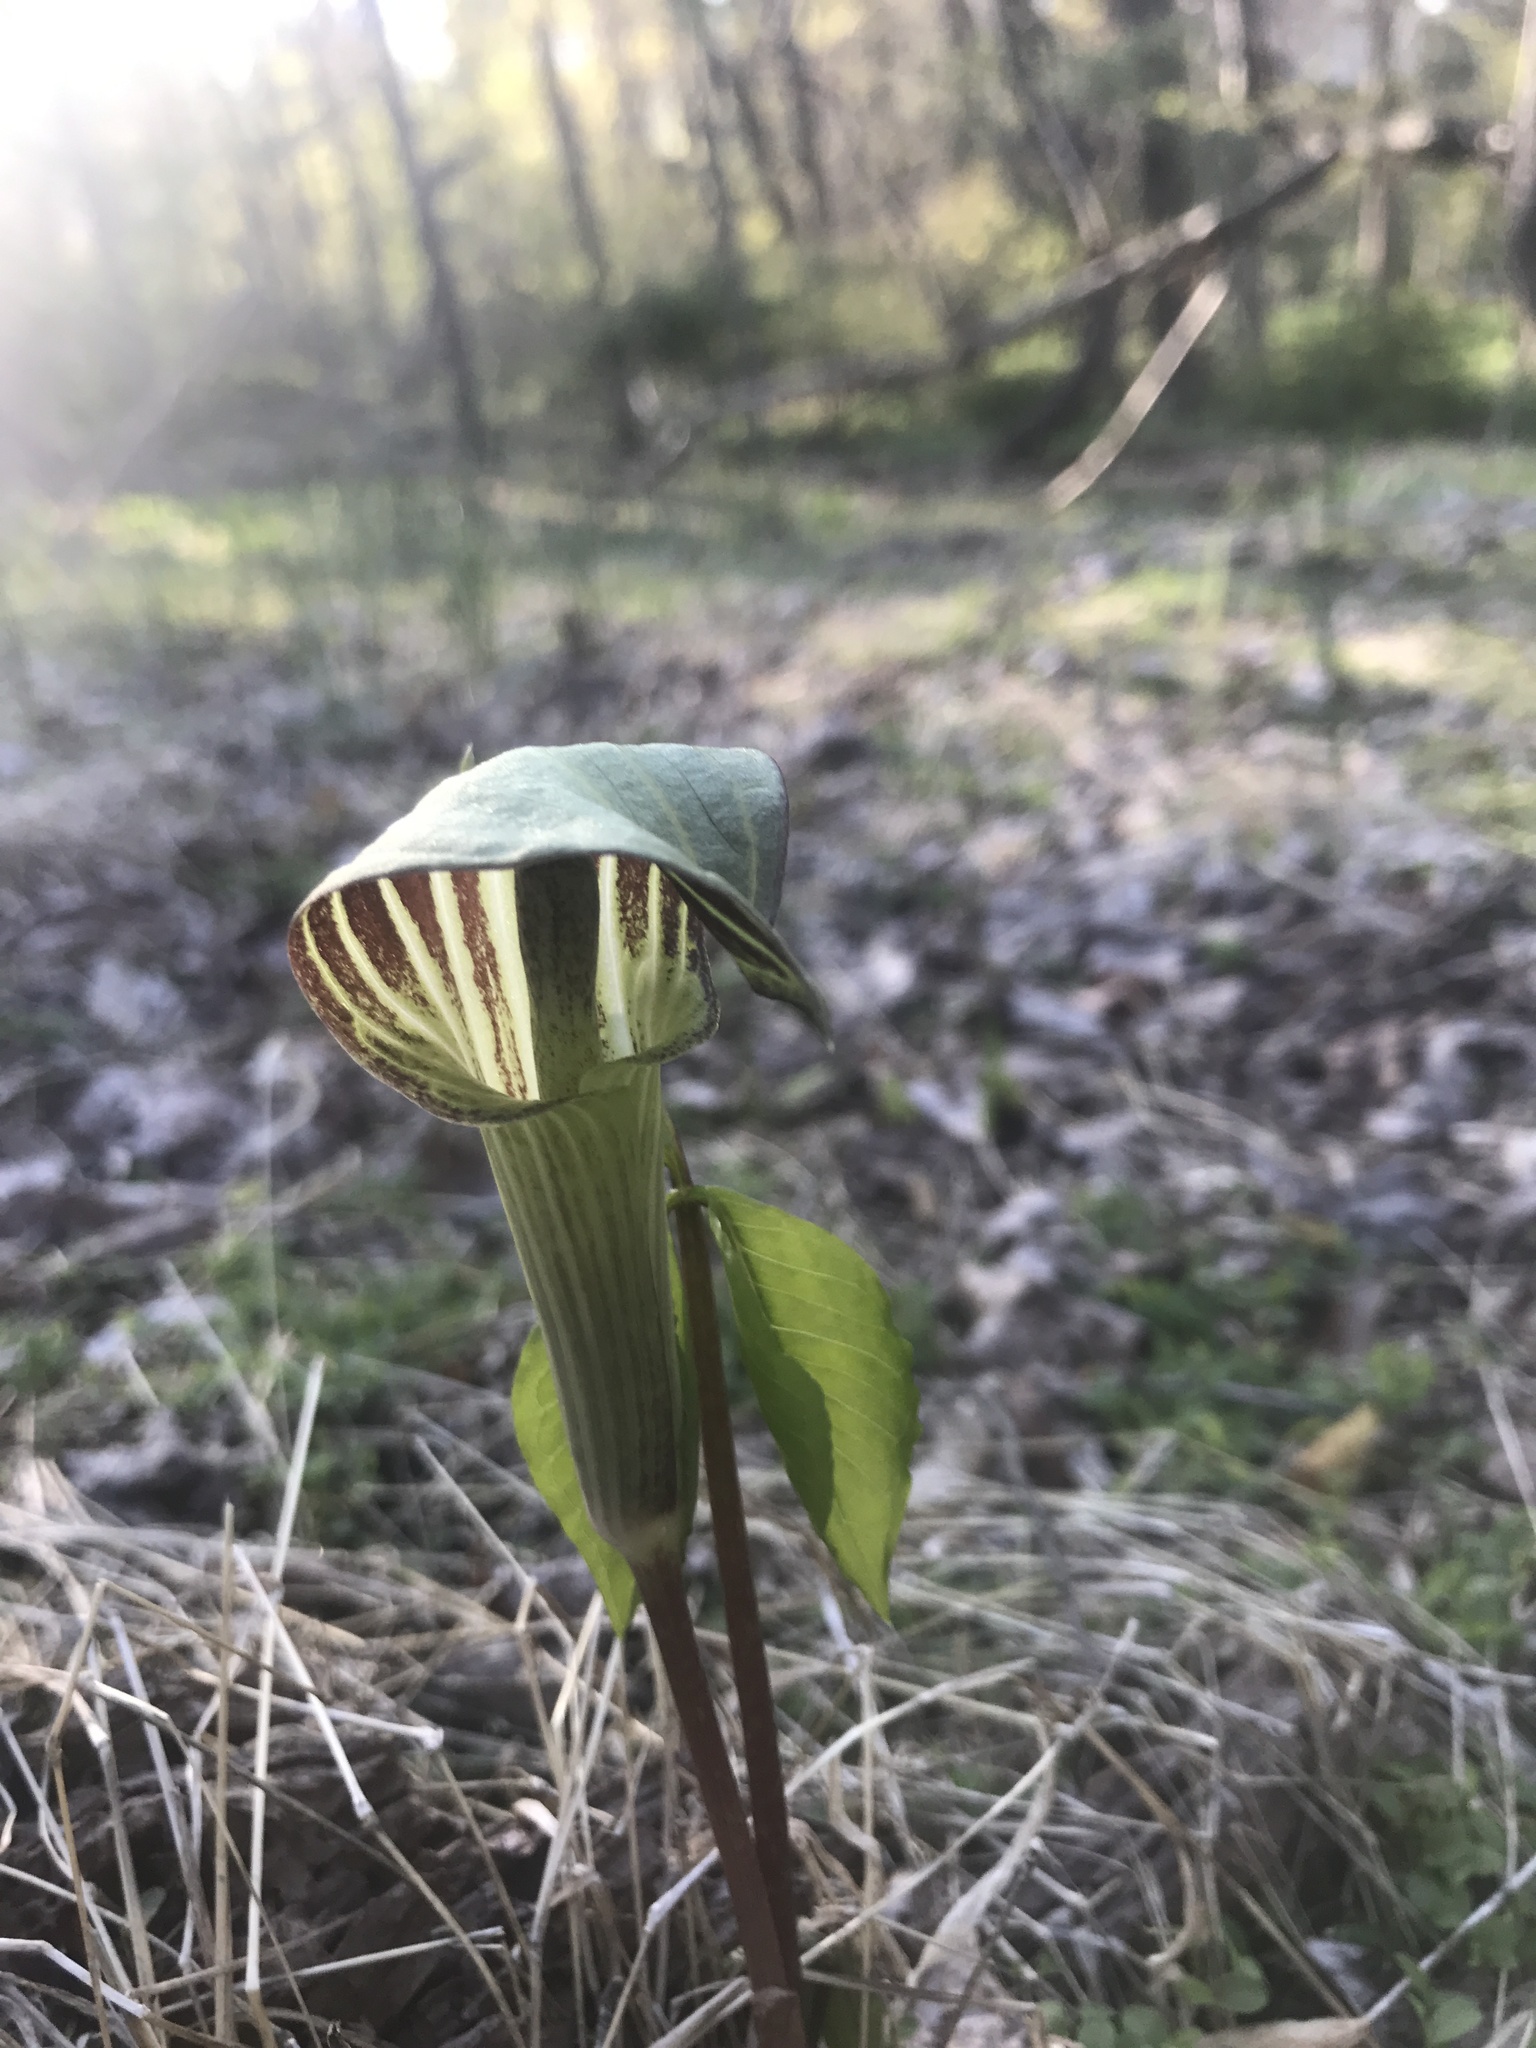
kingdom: Plantae
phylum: Tracheophyta
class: Liliopsida
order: Alismatales
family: Araceae
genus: Arisaema
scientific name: Arisaema triphyllum
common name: Jack-in-the-pulpit
